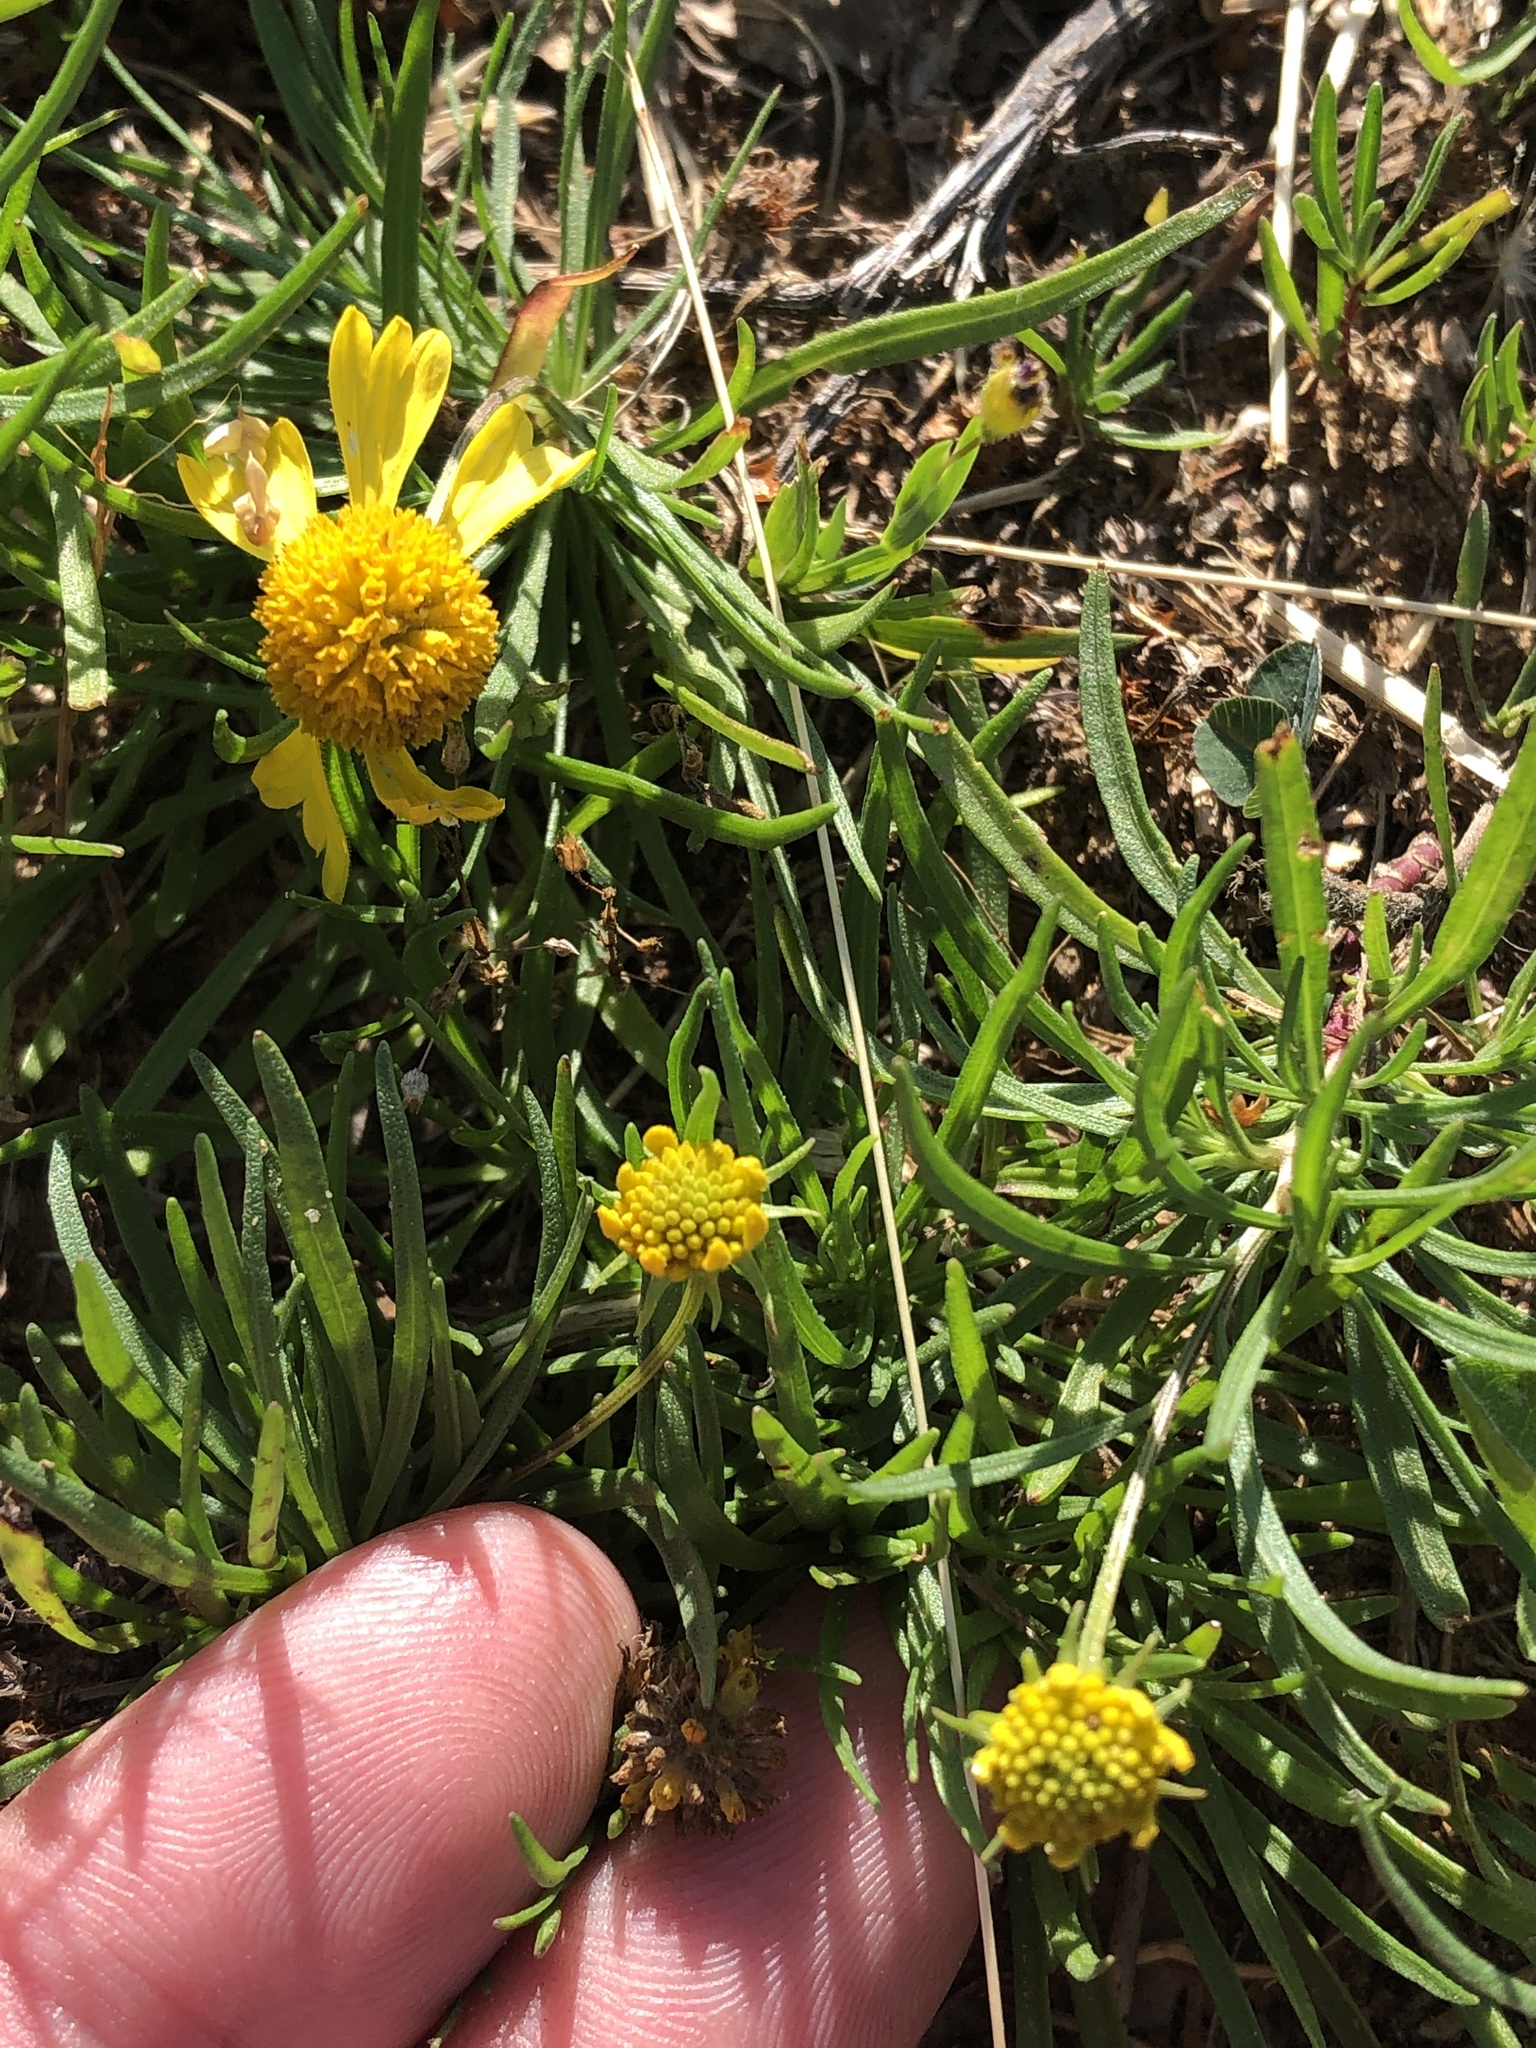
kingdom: Plantae
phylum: Tracheophyta
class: Magnoliopsida
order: Asterales
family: Asteraceae
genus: Helenium
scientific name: Helenium amarum
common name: Bitter sneezeweed
